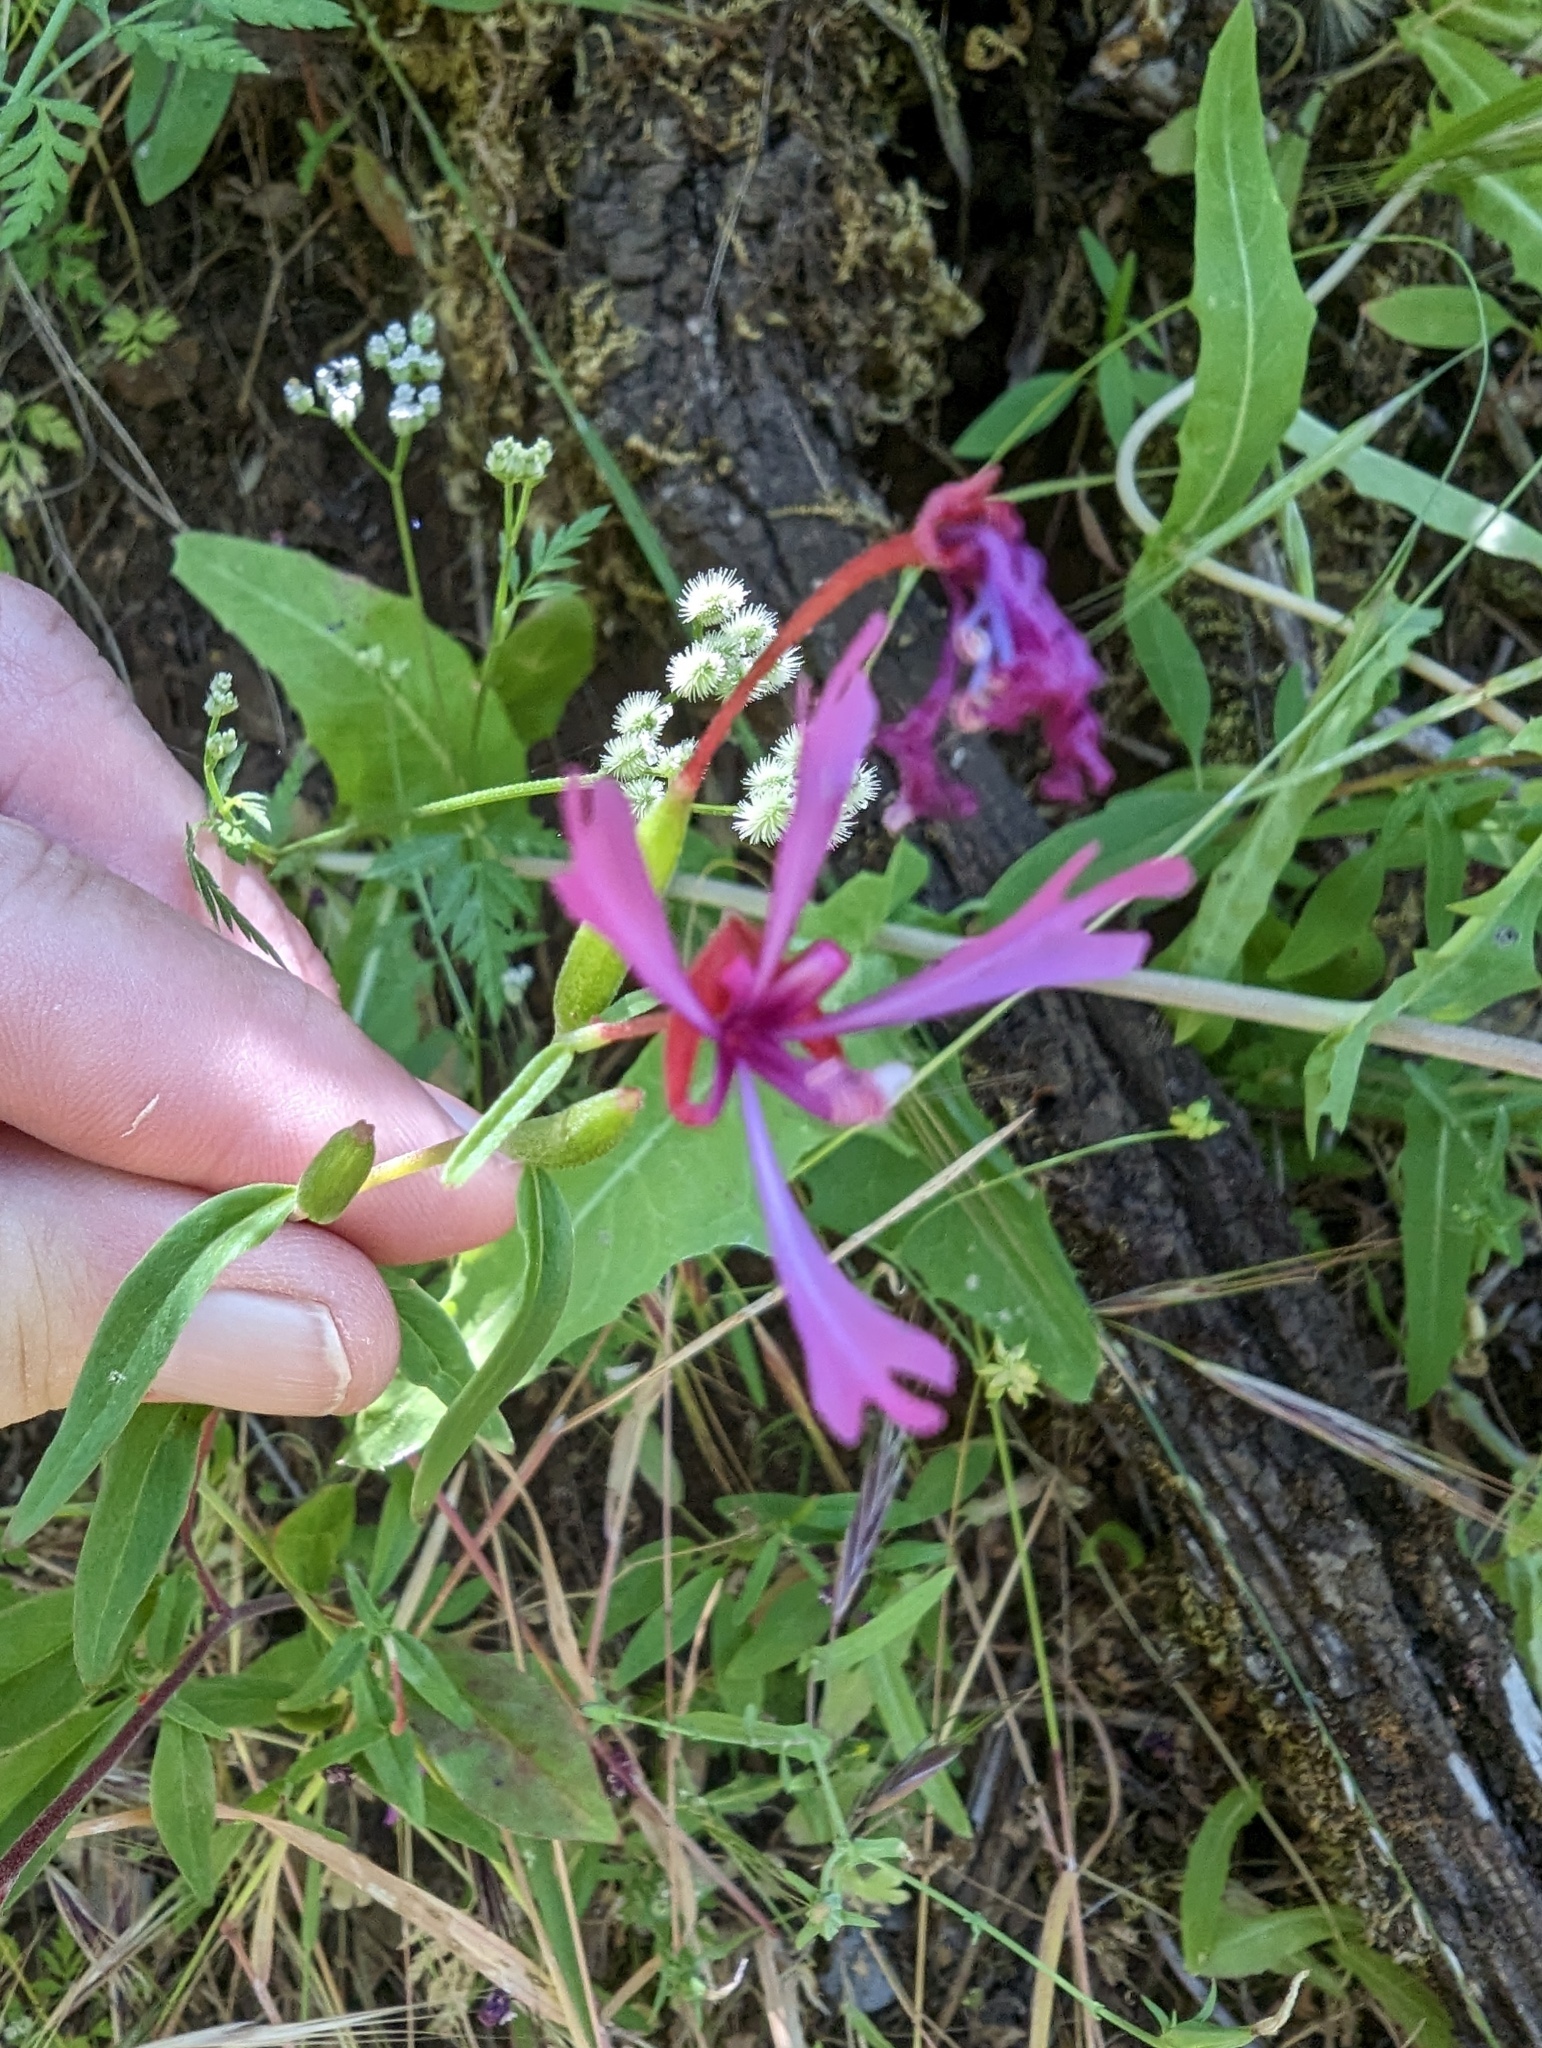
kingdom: Plantae
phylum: Tracheophyta
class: Magnoliopsida
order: Myrtales
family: Onagraceae
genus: Clarkia
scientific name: Clarkia concinna
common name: Red-ribbons
